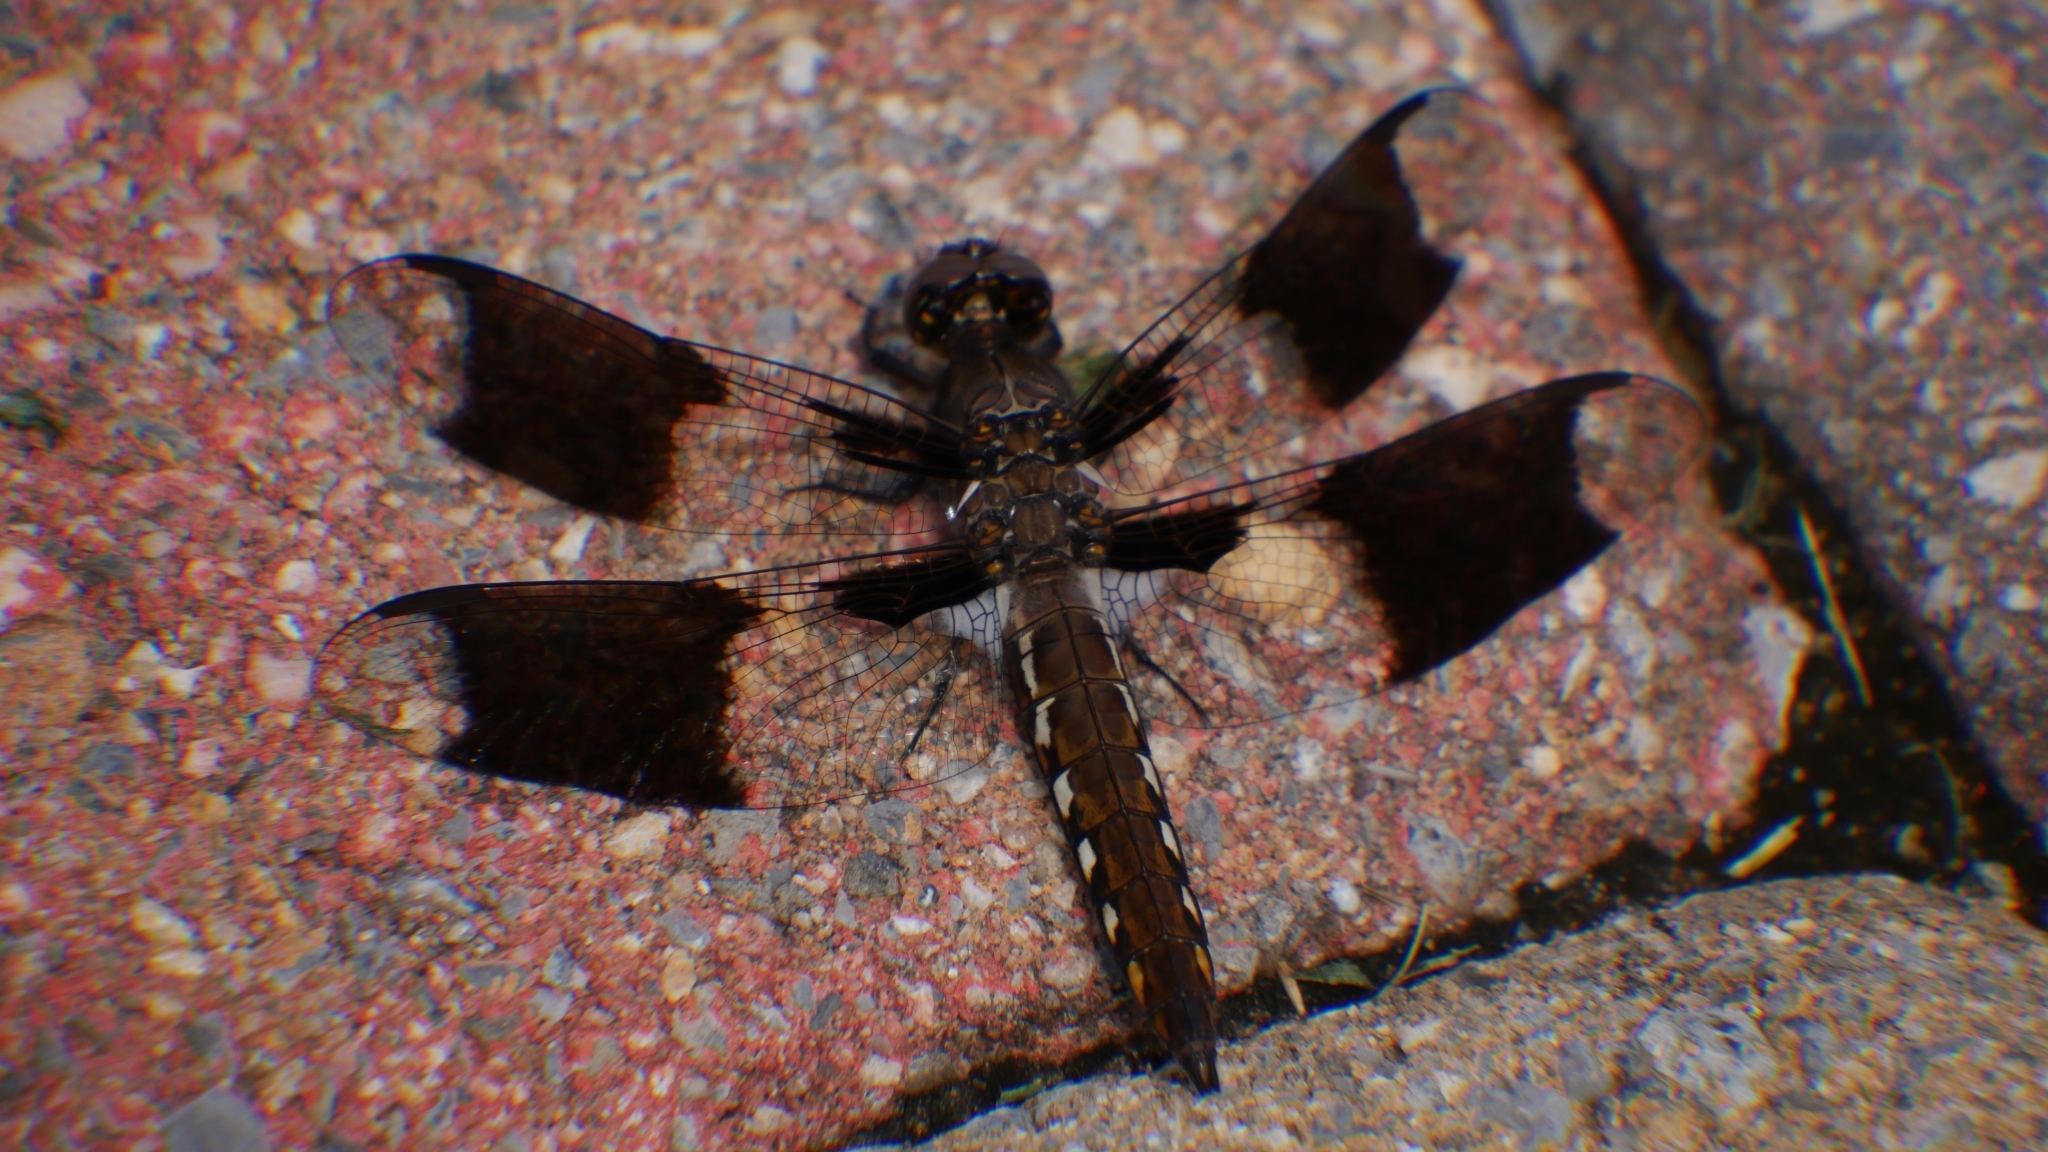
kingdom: Animalia
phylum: Arthropoda
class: Insecta
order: Odonata
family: Libellulidae
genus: Plathemis
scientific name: Plathemis lydia
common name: Common whitetail
